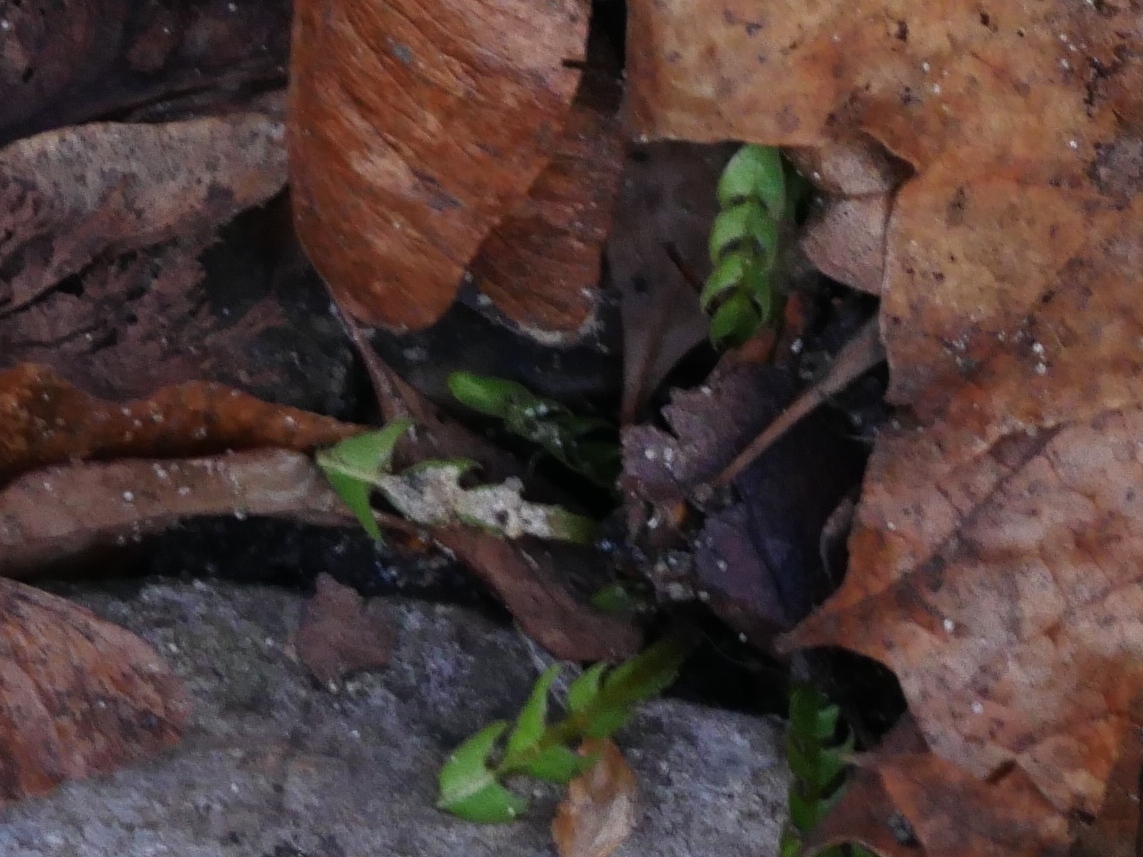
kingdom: Plantae
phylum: Tracheophyta
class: Magnoliopsida
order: Asterales
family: Asteraceae
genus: Taraxacum
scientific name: Taraxacum
